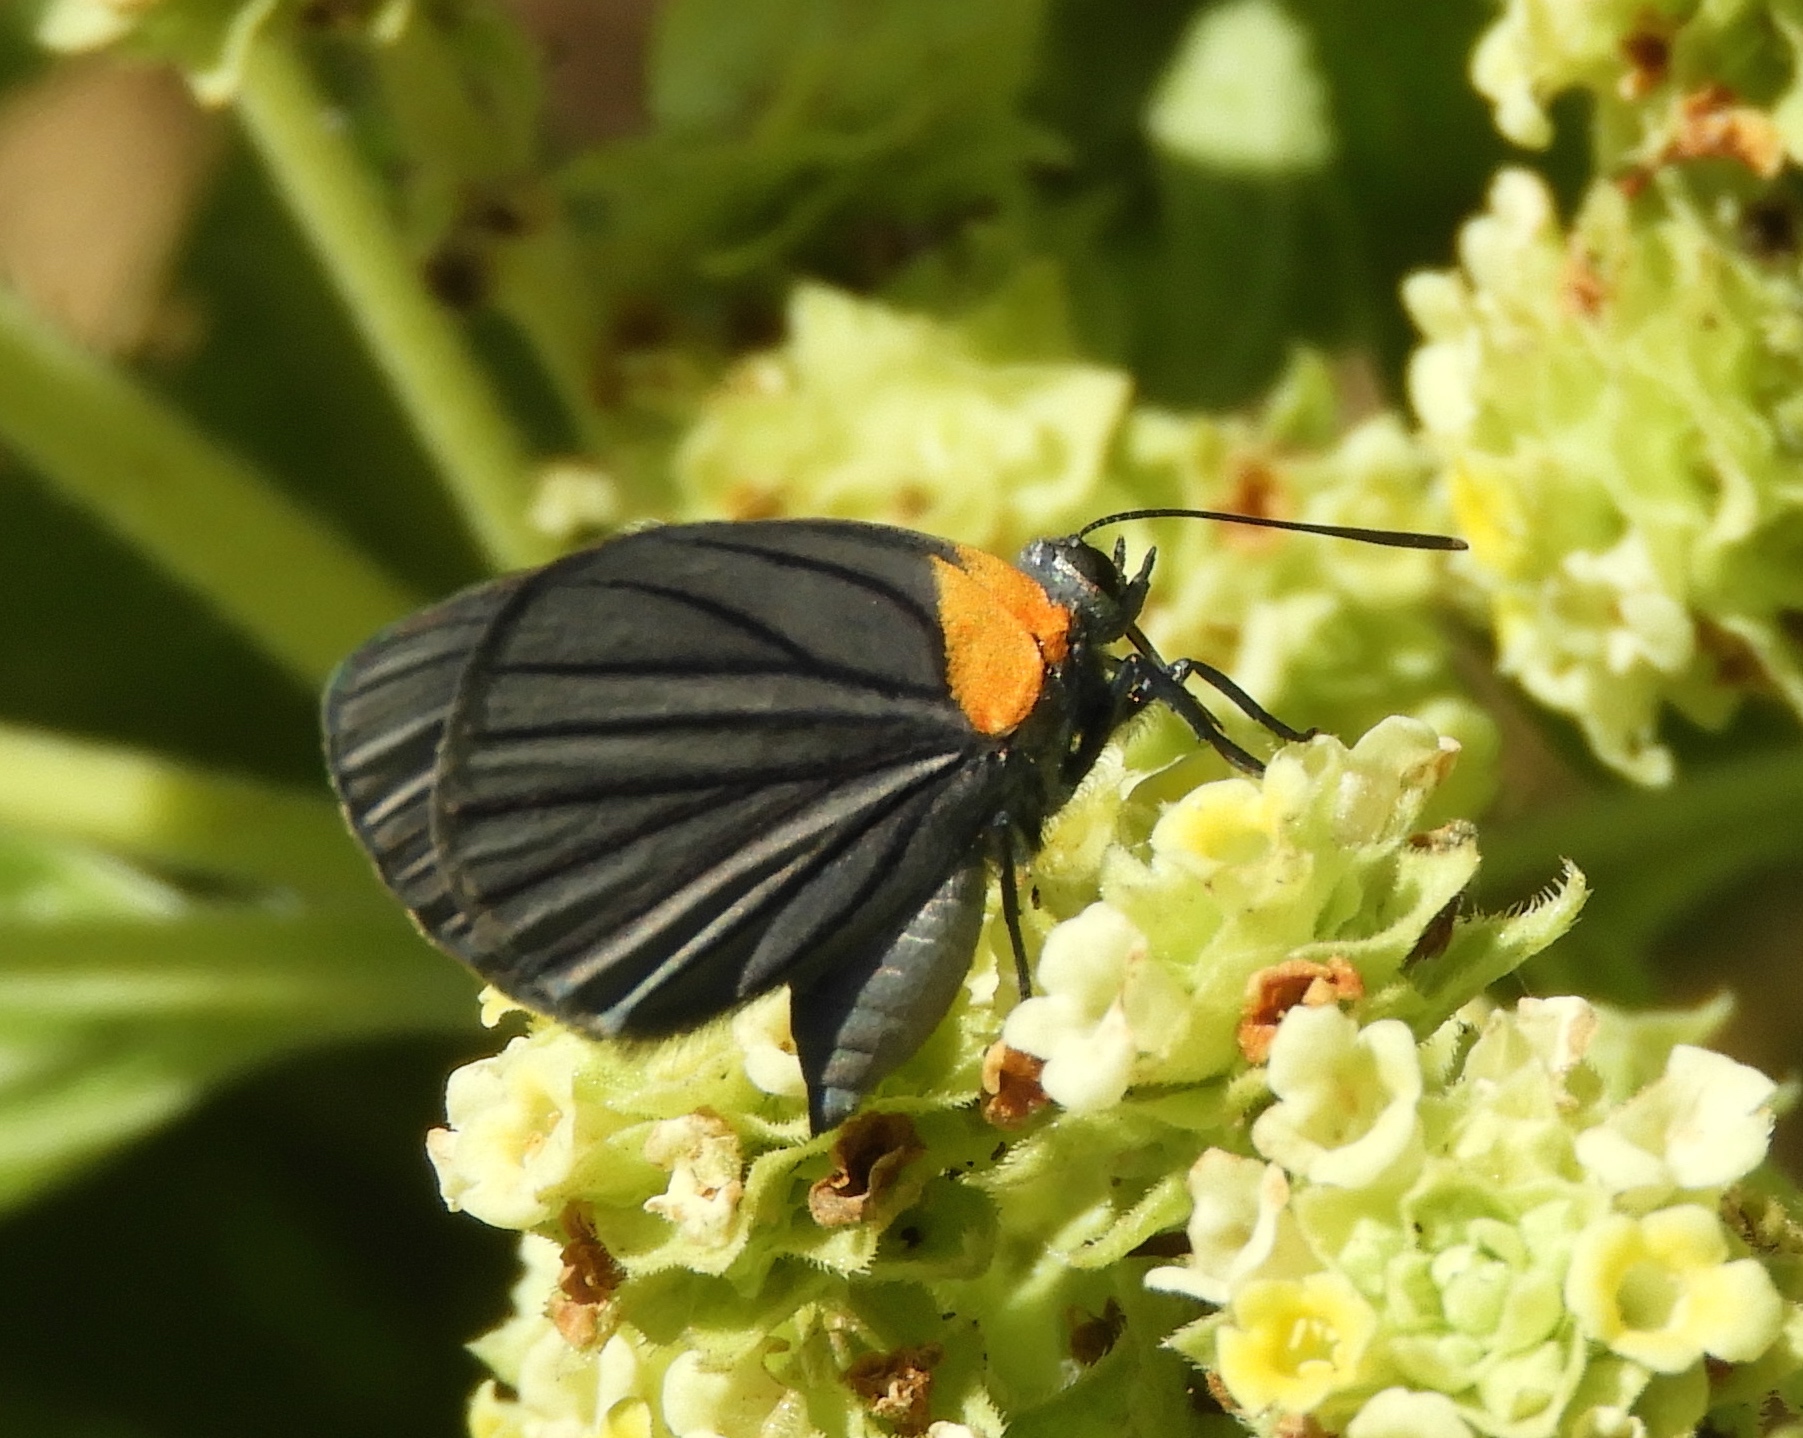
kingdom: Animalia
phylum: Arthropoda
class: Insecta
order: Lepidoptera
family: Lycaenidae
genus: Ipidecla
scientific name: Ipidecla miadora
